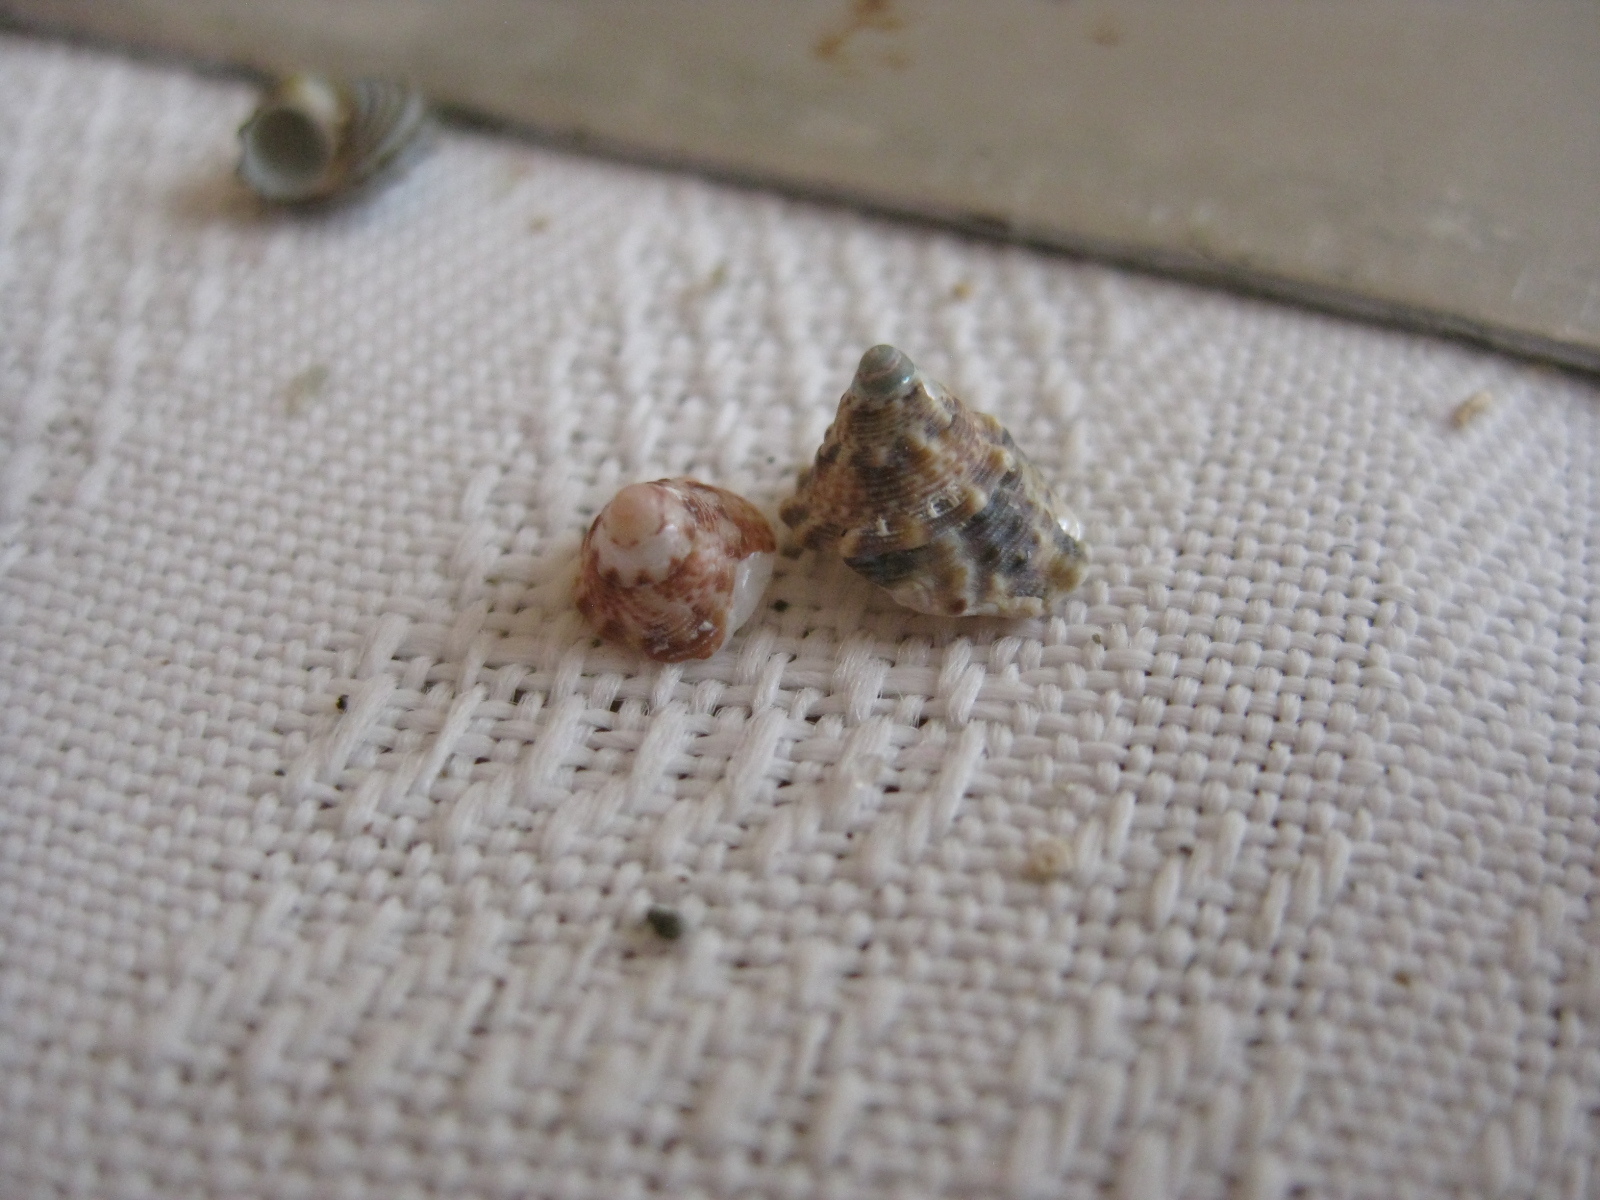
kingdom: Animalia
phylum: Mollusca
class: Gastropoda
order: Trochida
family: Trochidae
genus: Coelotrochus
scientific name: Coelotrochus viridis
